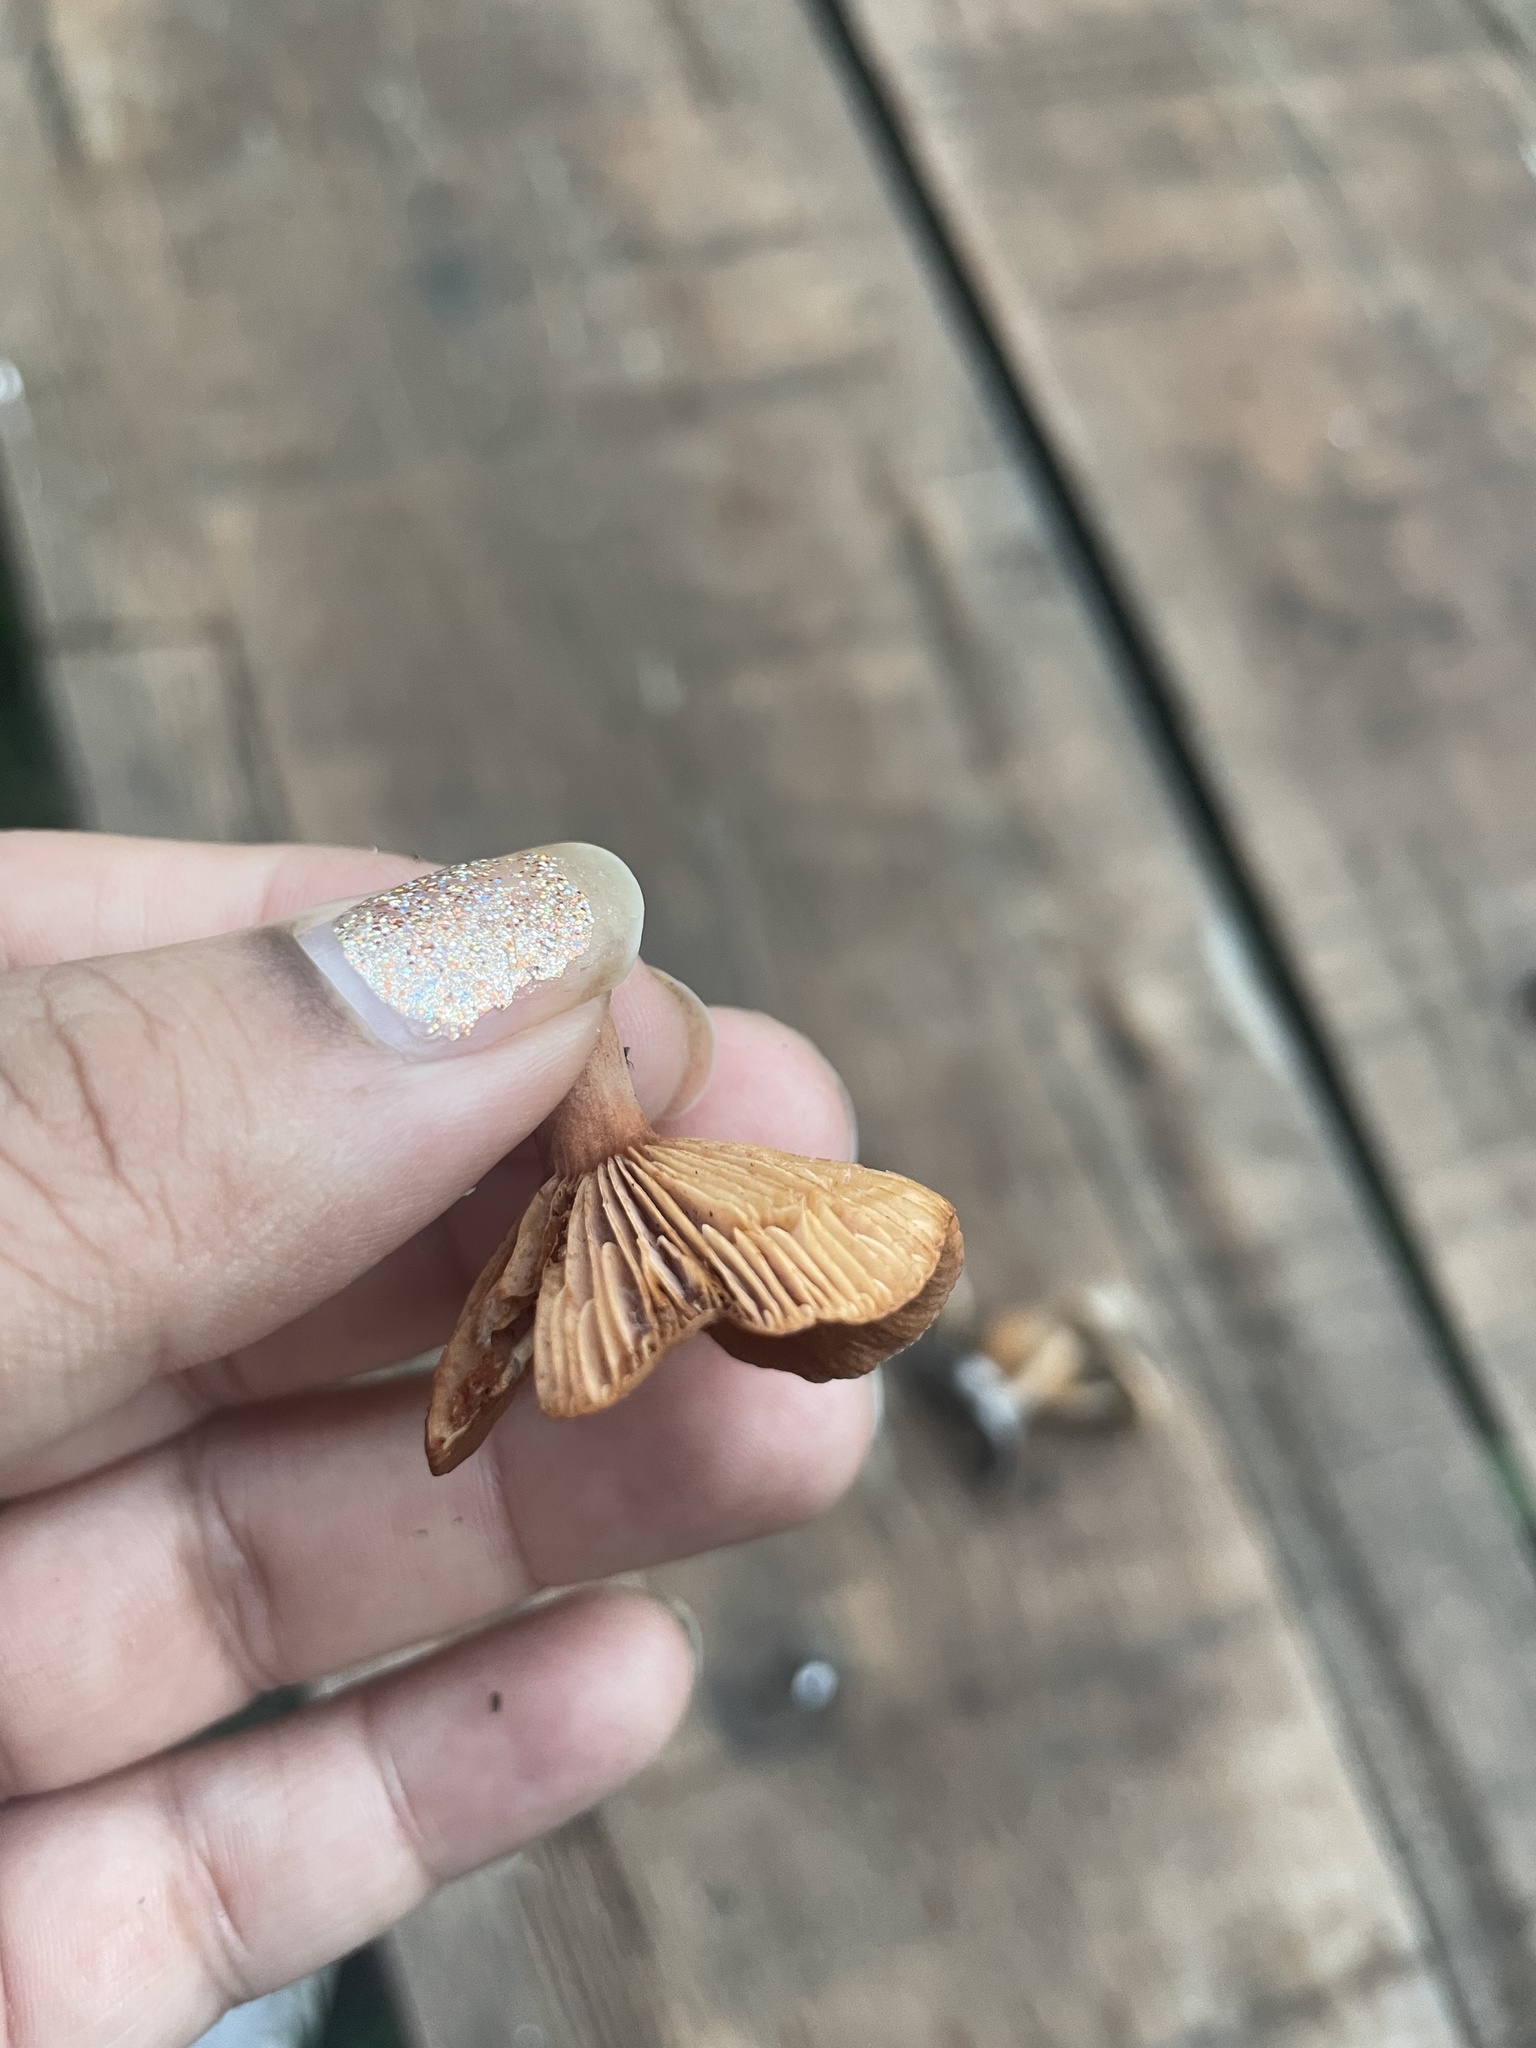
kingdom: Fungi
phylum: Basidiomycota
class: Agaricomycetes
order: Russulales
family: Russulaceae
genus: Lactarius
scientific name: Lactarius rubidus
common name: Candy cap
